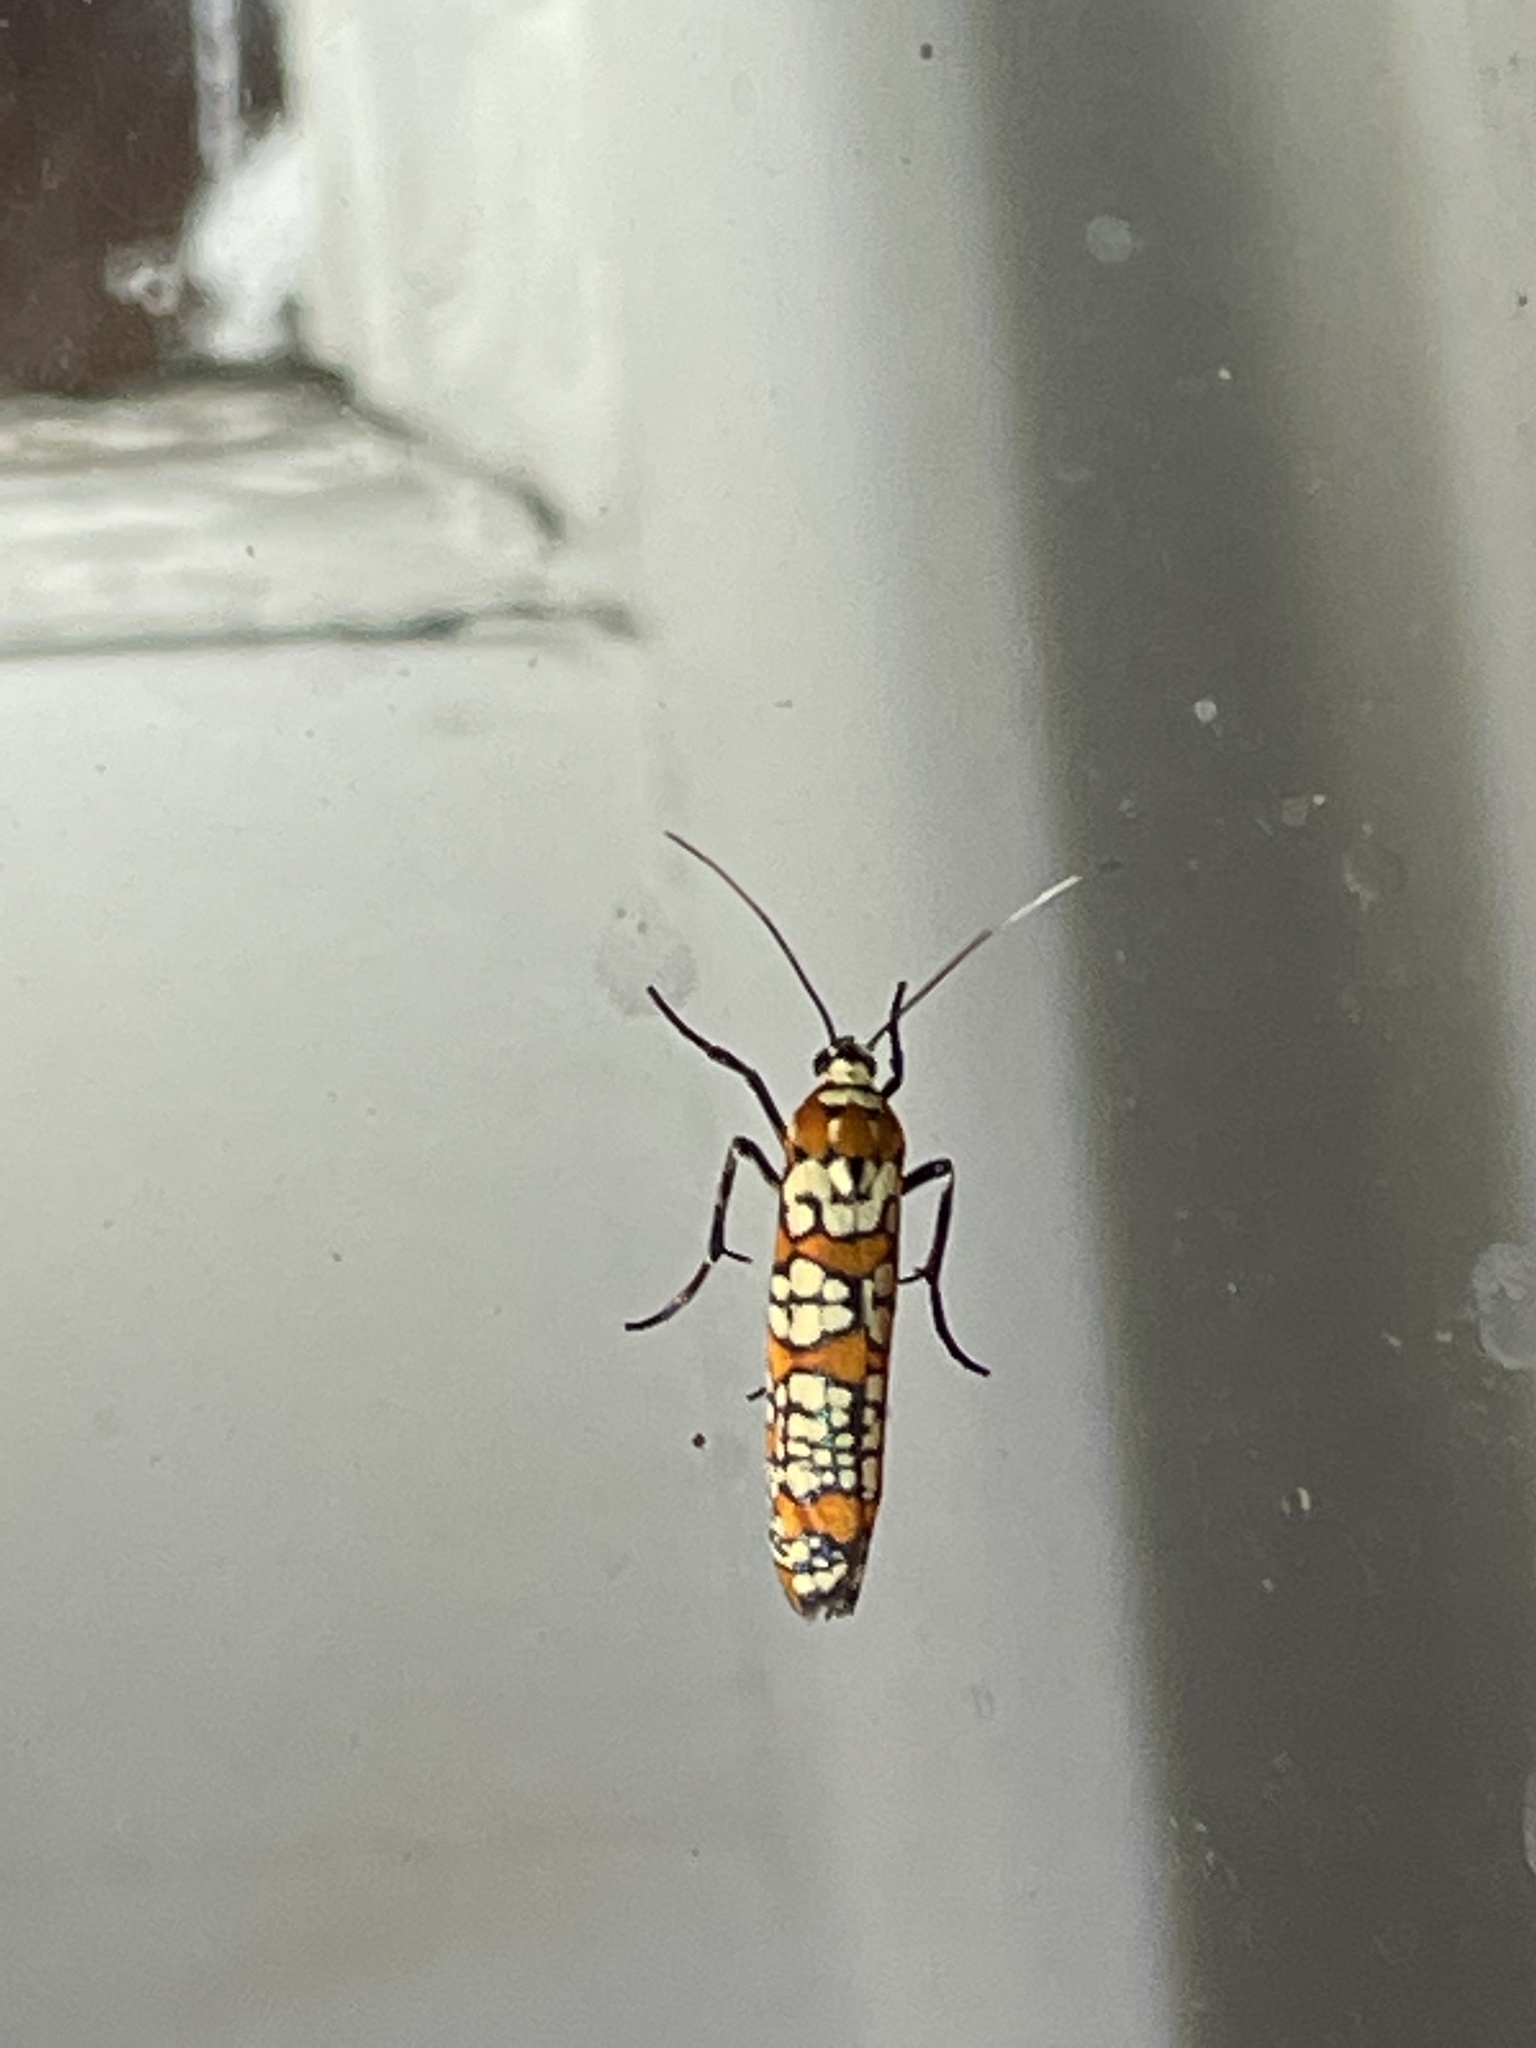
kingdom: Animalia
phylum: Arthropoda
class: Insecta
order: Lepidoptera
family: Attevidae
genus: Atteva
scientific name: Atteva punctella
